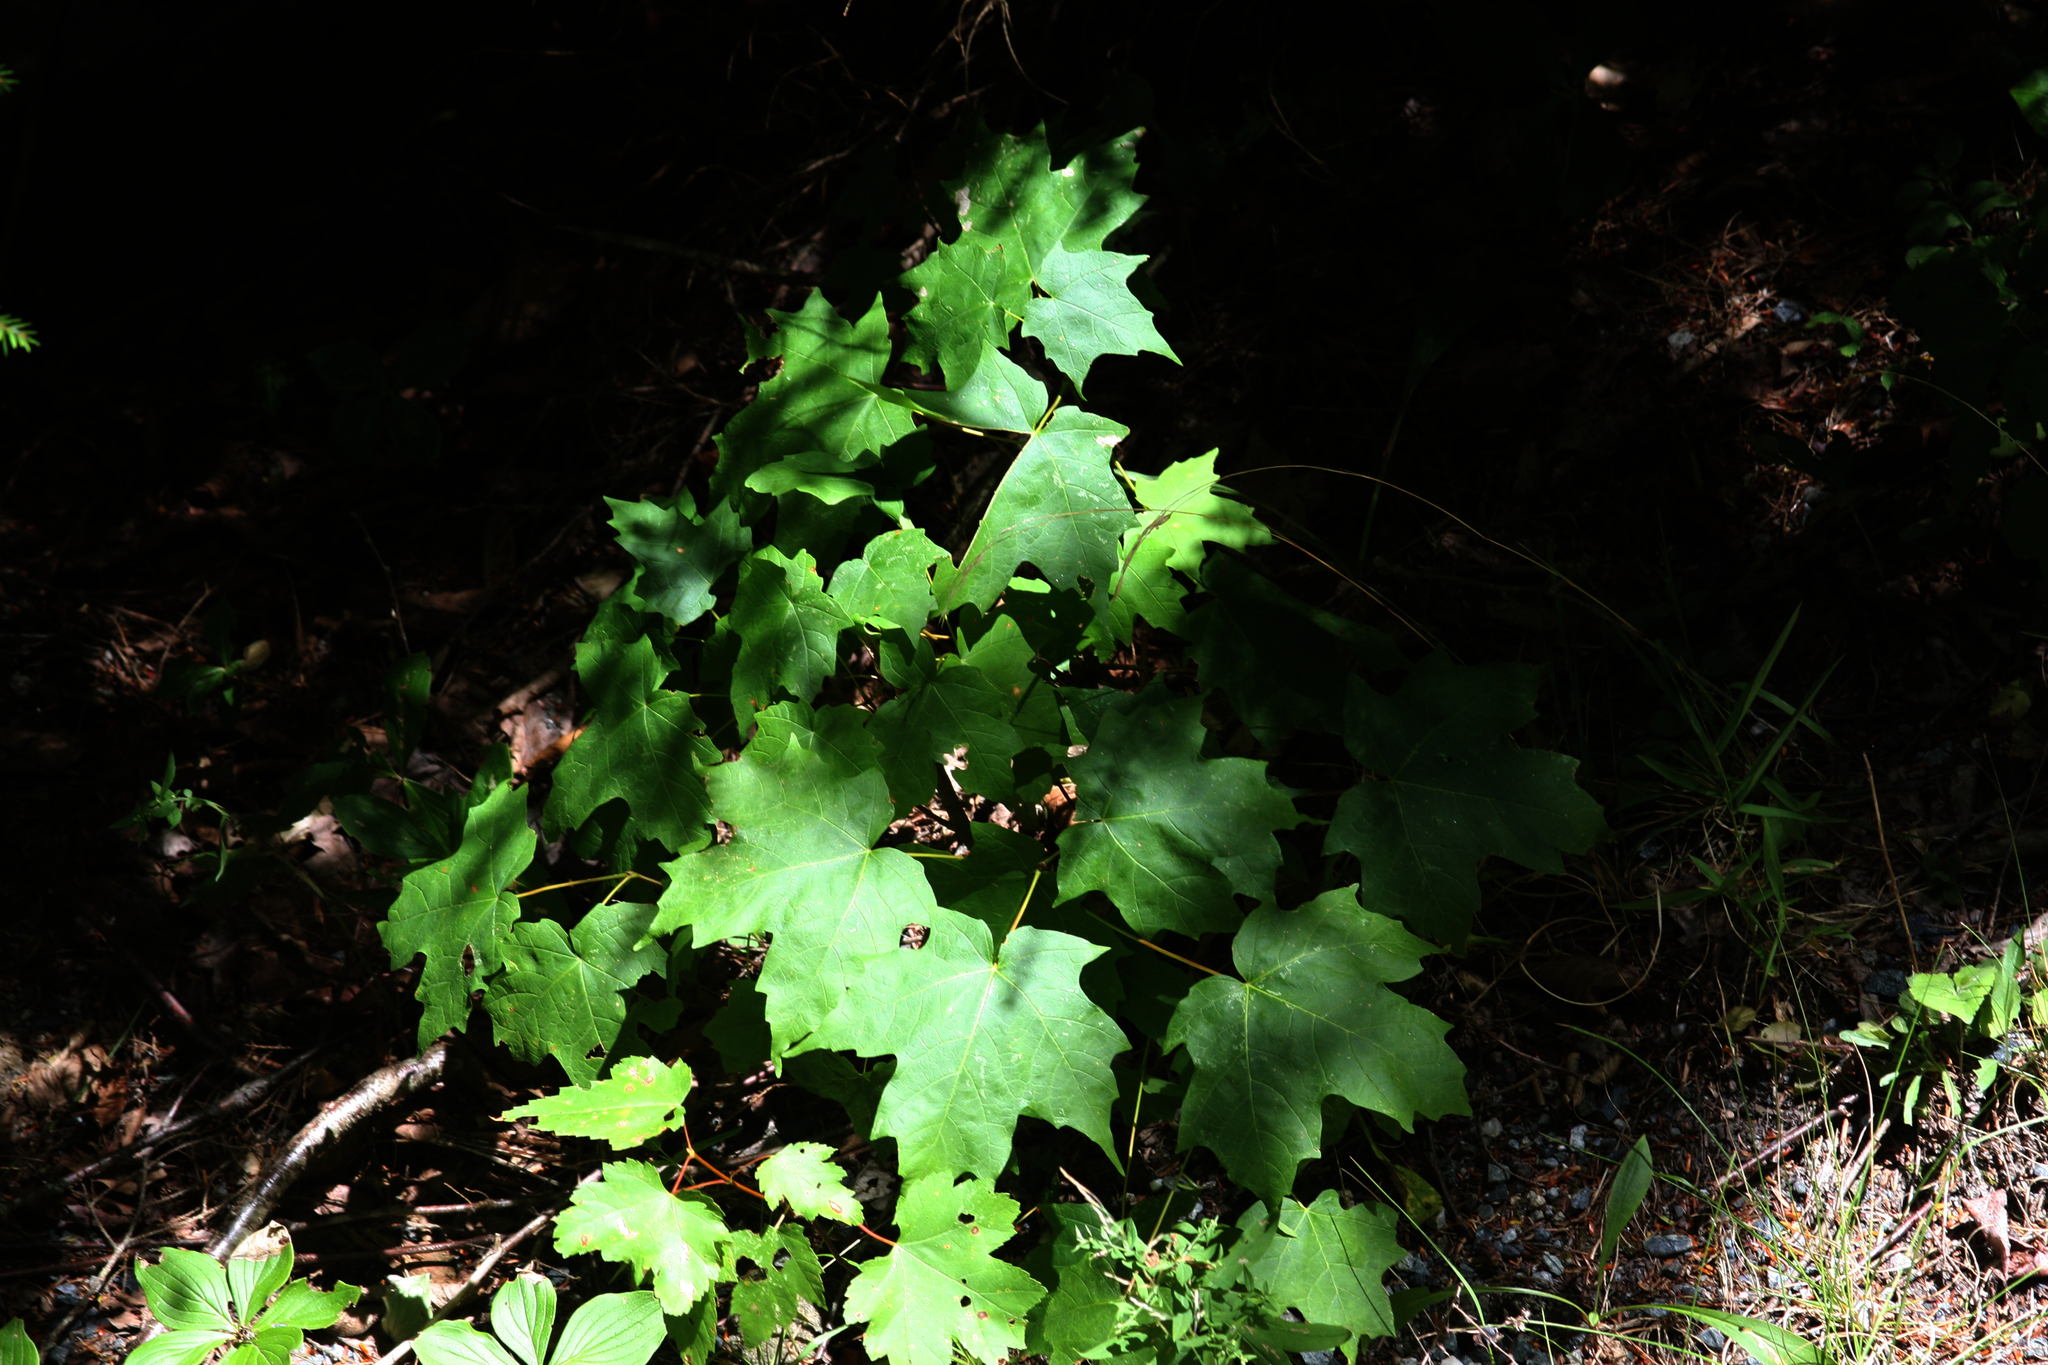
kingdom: Plantae
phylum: Tracheophyta
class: Magnoliopsida
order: Sapindales
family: Sapindaceae
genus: Acer
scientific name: Acer saccharum
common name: Sugar maple
